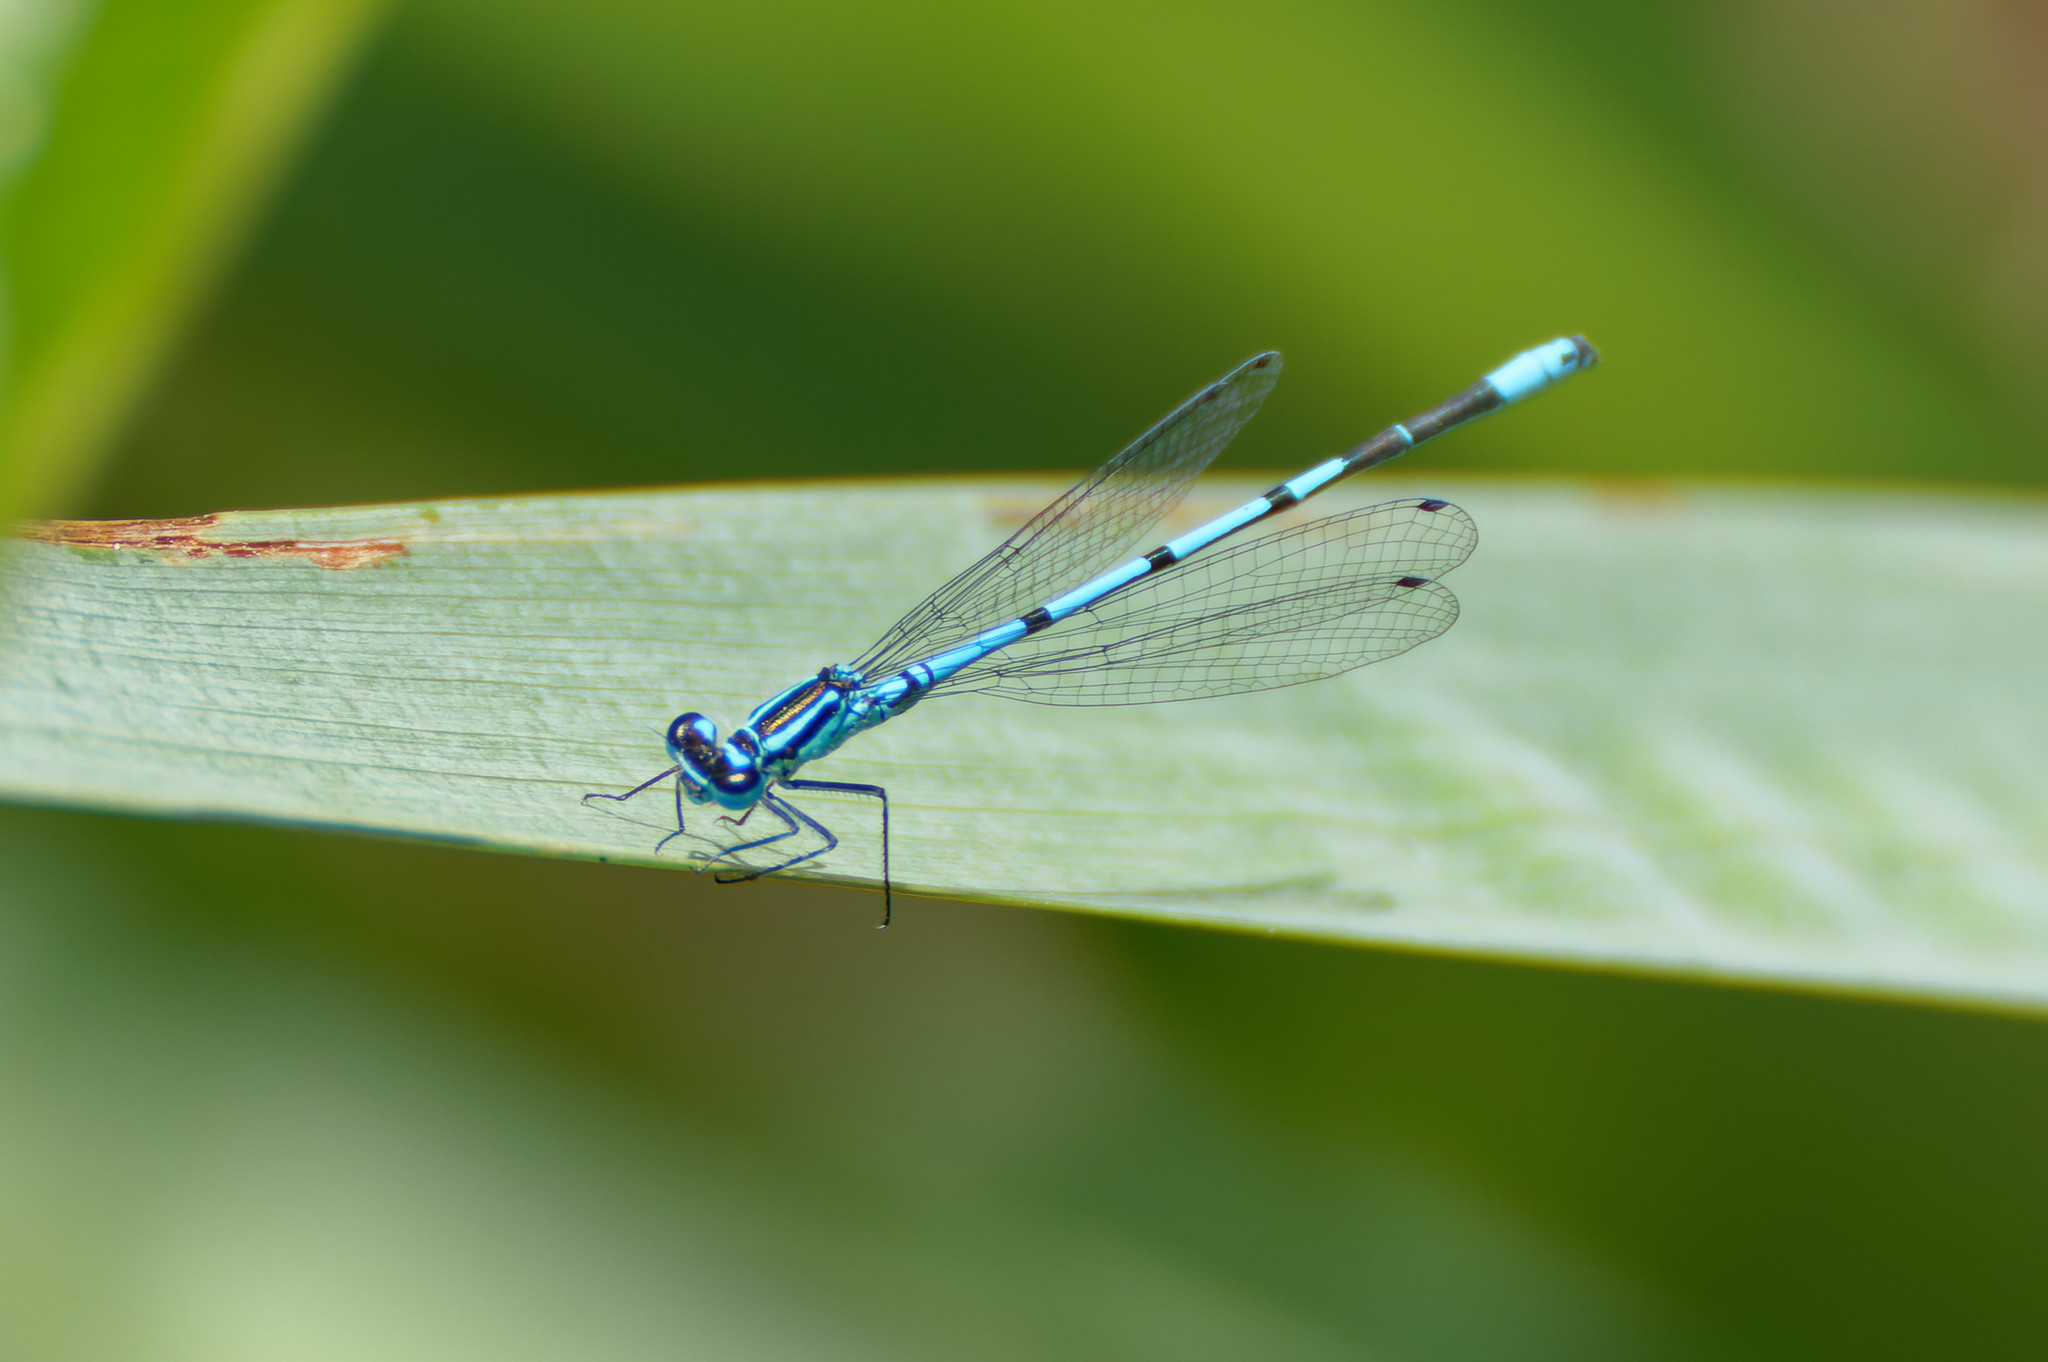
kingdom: Animalia
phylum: Arthropoda
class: Insecta
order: Odonata
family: Coenagrionidae
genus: Coenagrion
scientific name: Coenagrion puella
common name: Azure damselfly
